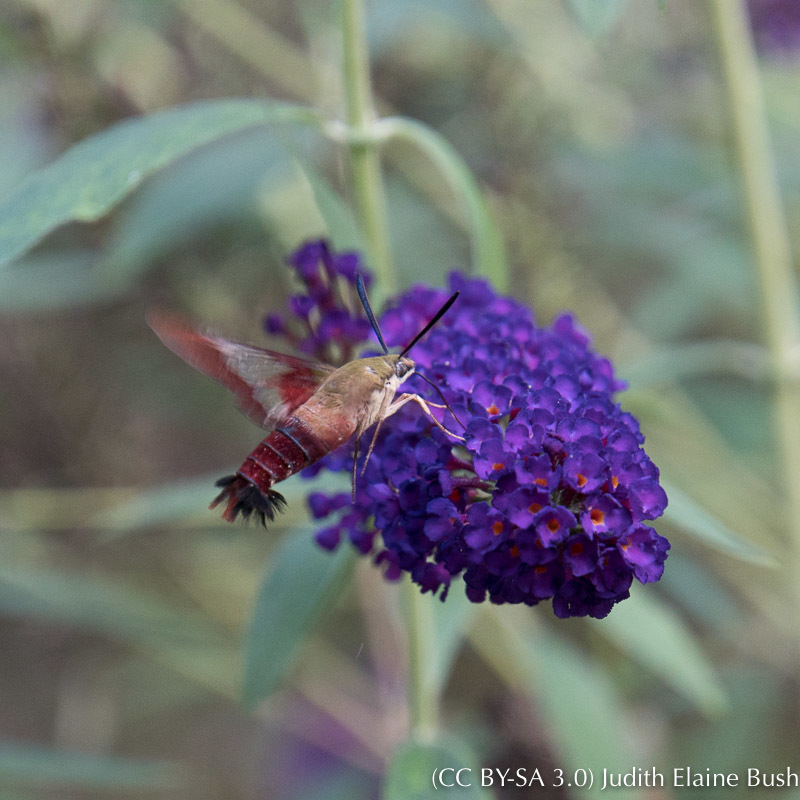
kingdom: Animalia
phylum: Arthropoda
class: Insecta
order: Lepidoptera
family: Sphingidae
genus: Hemaris
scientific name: Hemaris thysbe
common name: Common clear-wing
